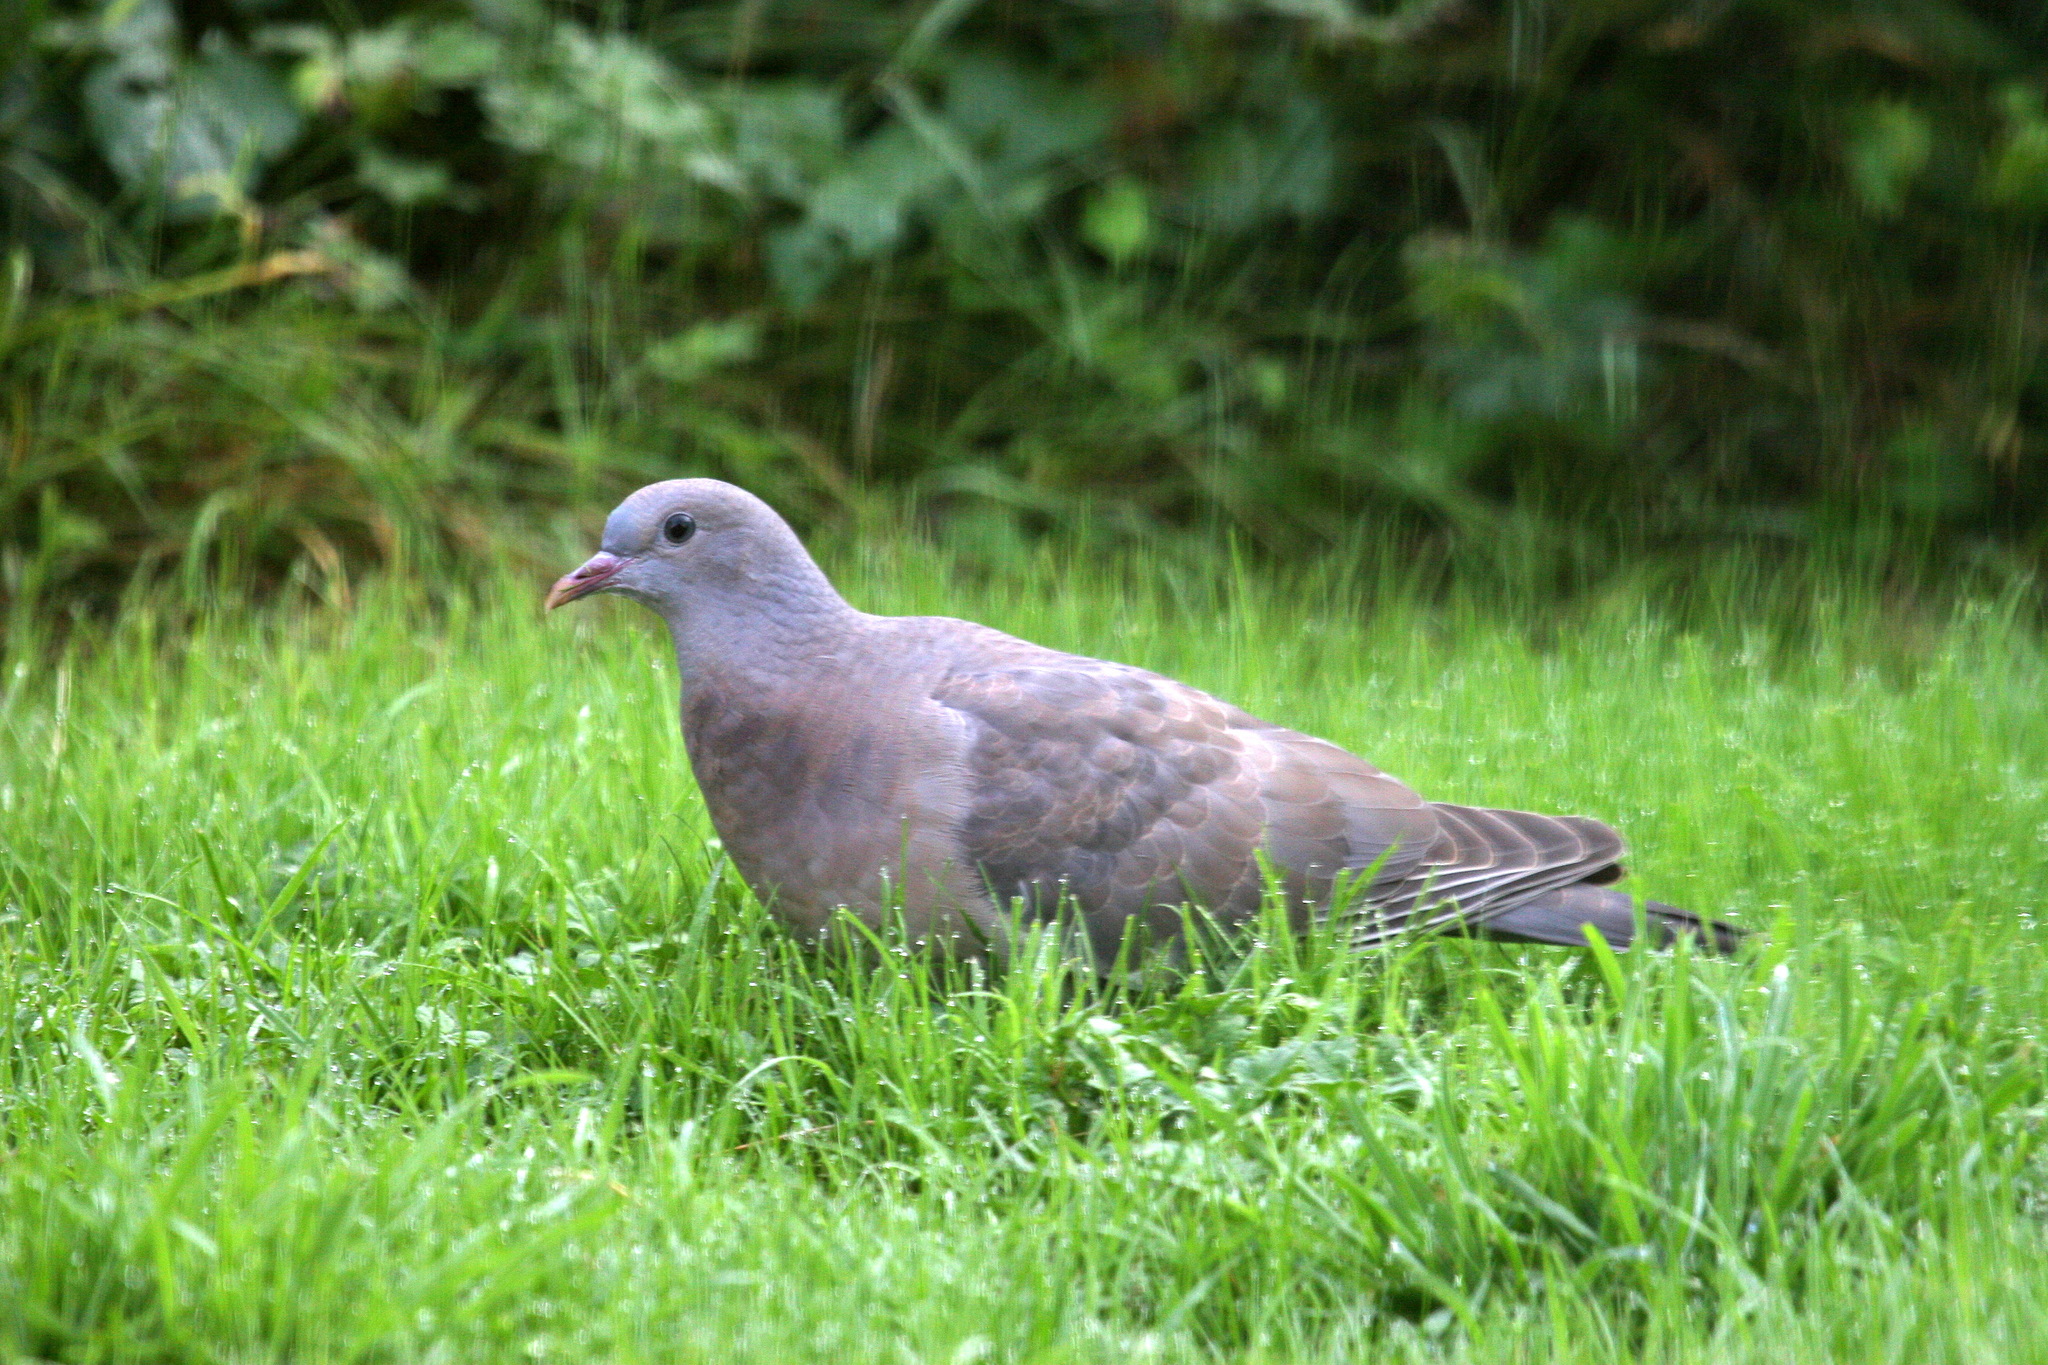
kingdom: Animalia
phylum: Chordata
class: Aves
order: Columbiformes
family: Columbidae
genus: Columba
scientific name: Columba oenas
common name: Stock dove
